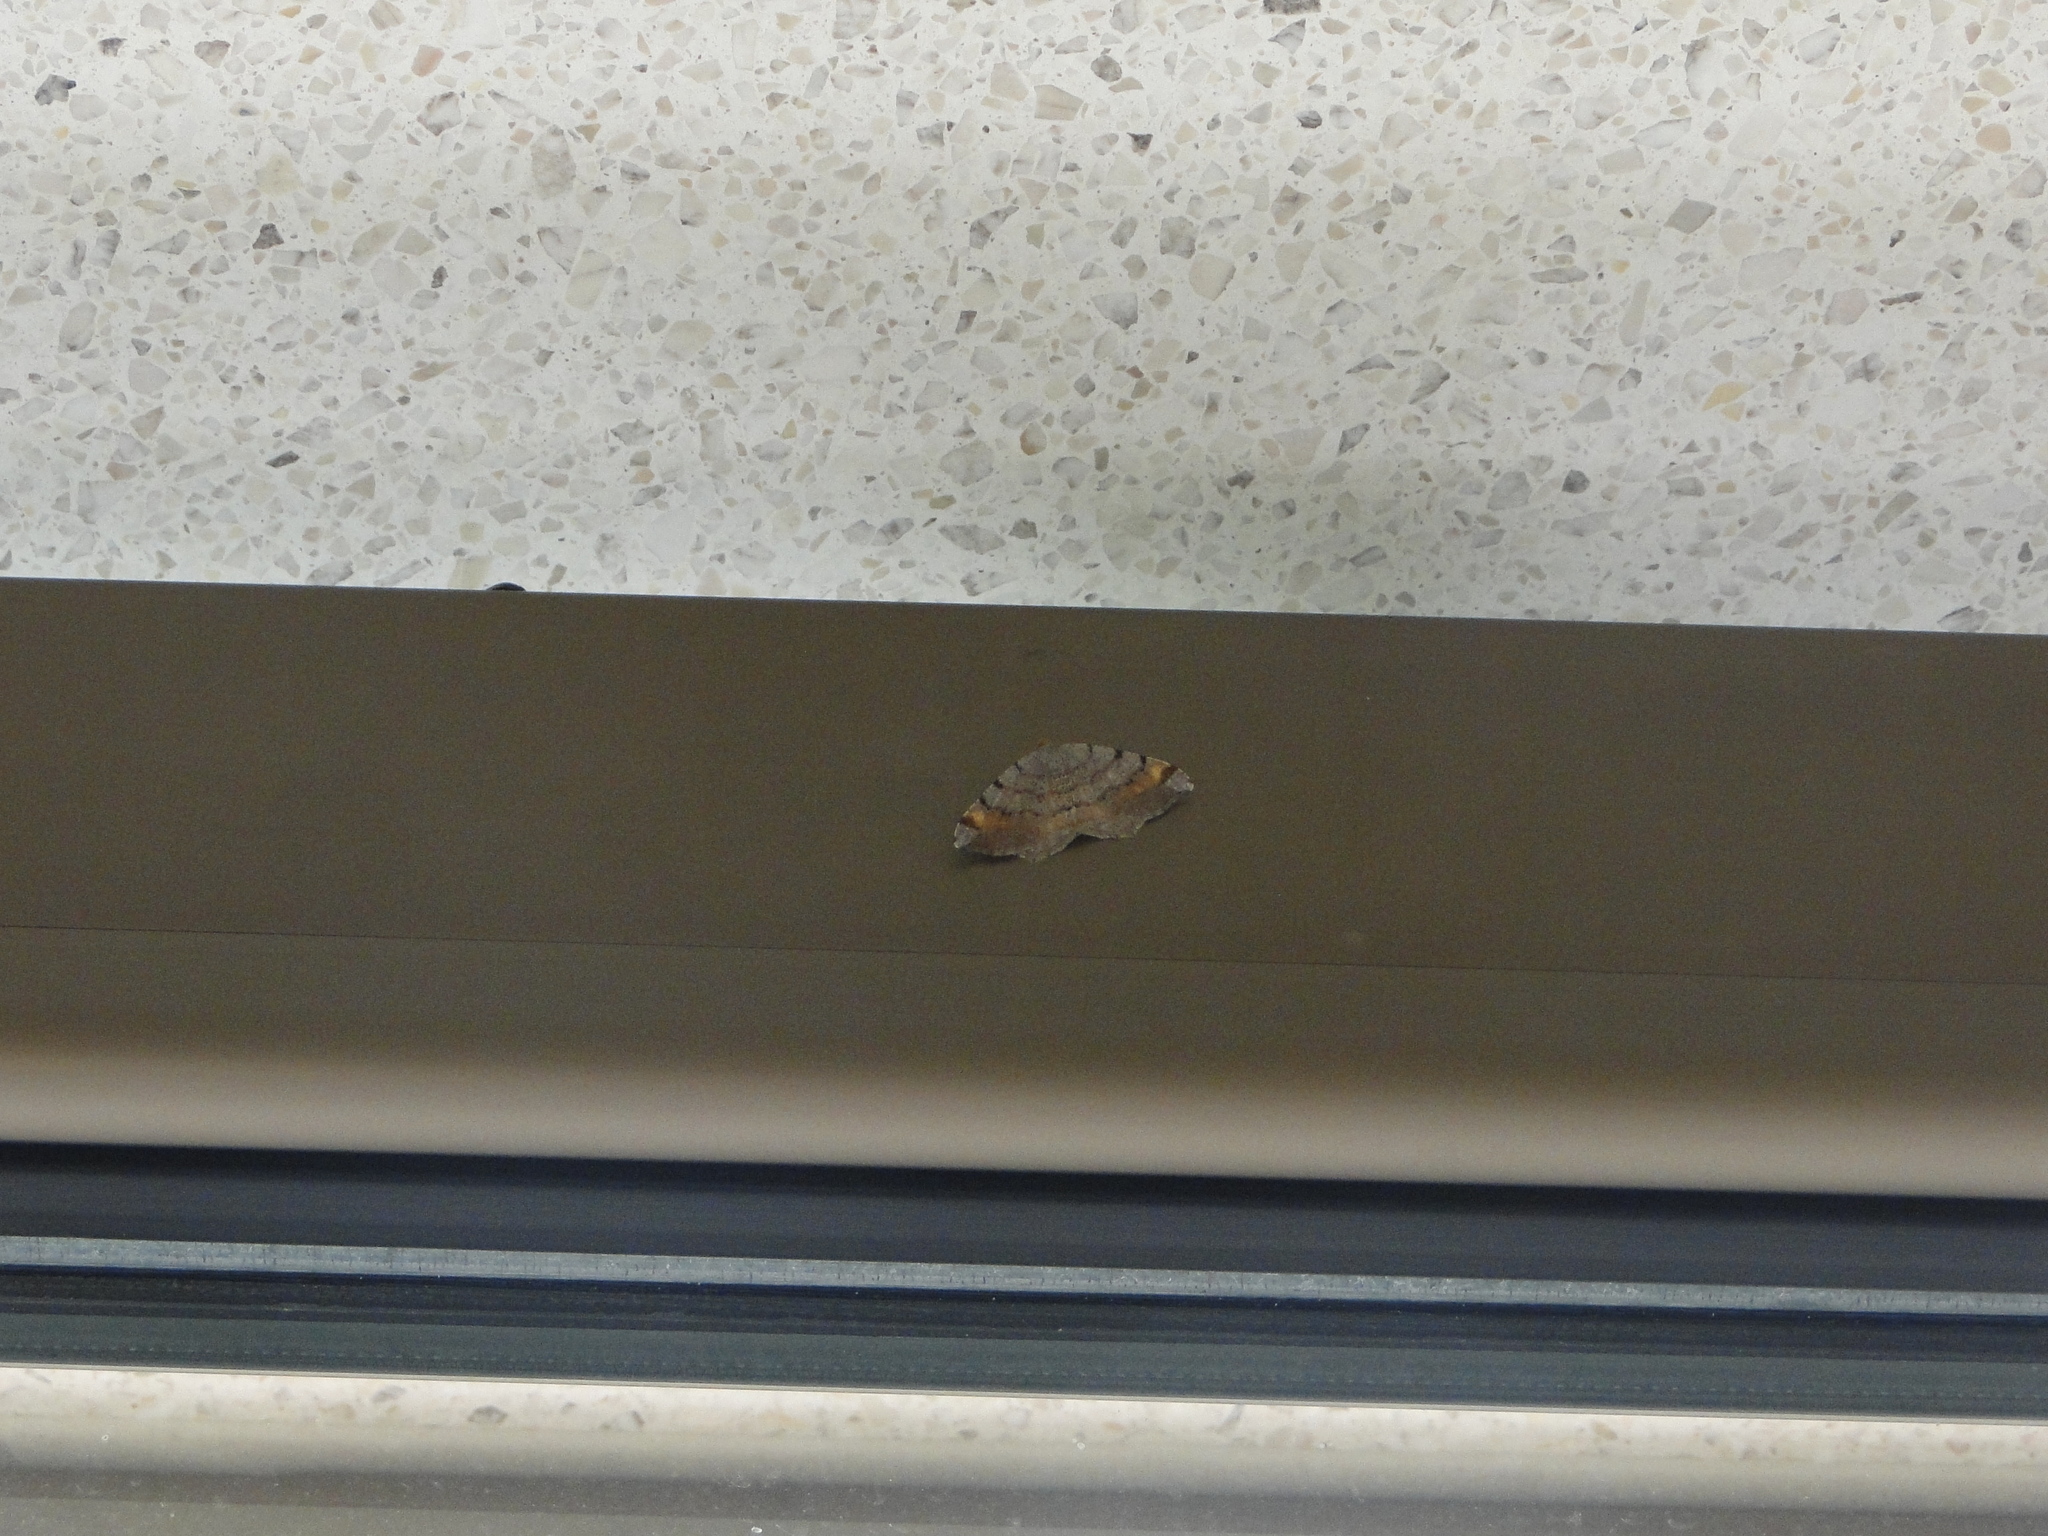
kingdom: Animalia
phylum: Arthropoda
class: Insecta
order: Lepidoptera
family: Geometridae
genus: Macaria
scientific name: Macaria liturata
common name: Tawny-barred angle
